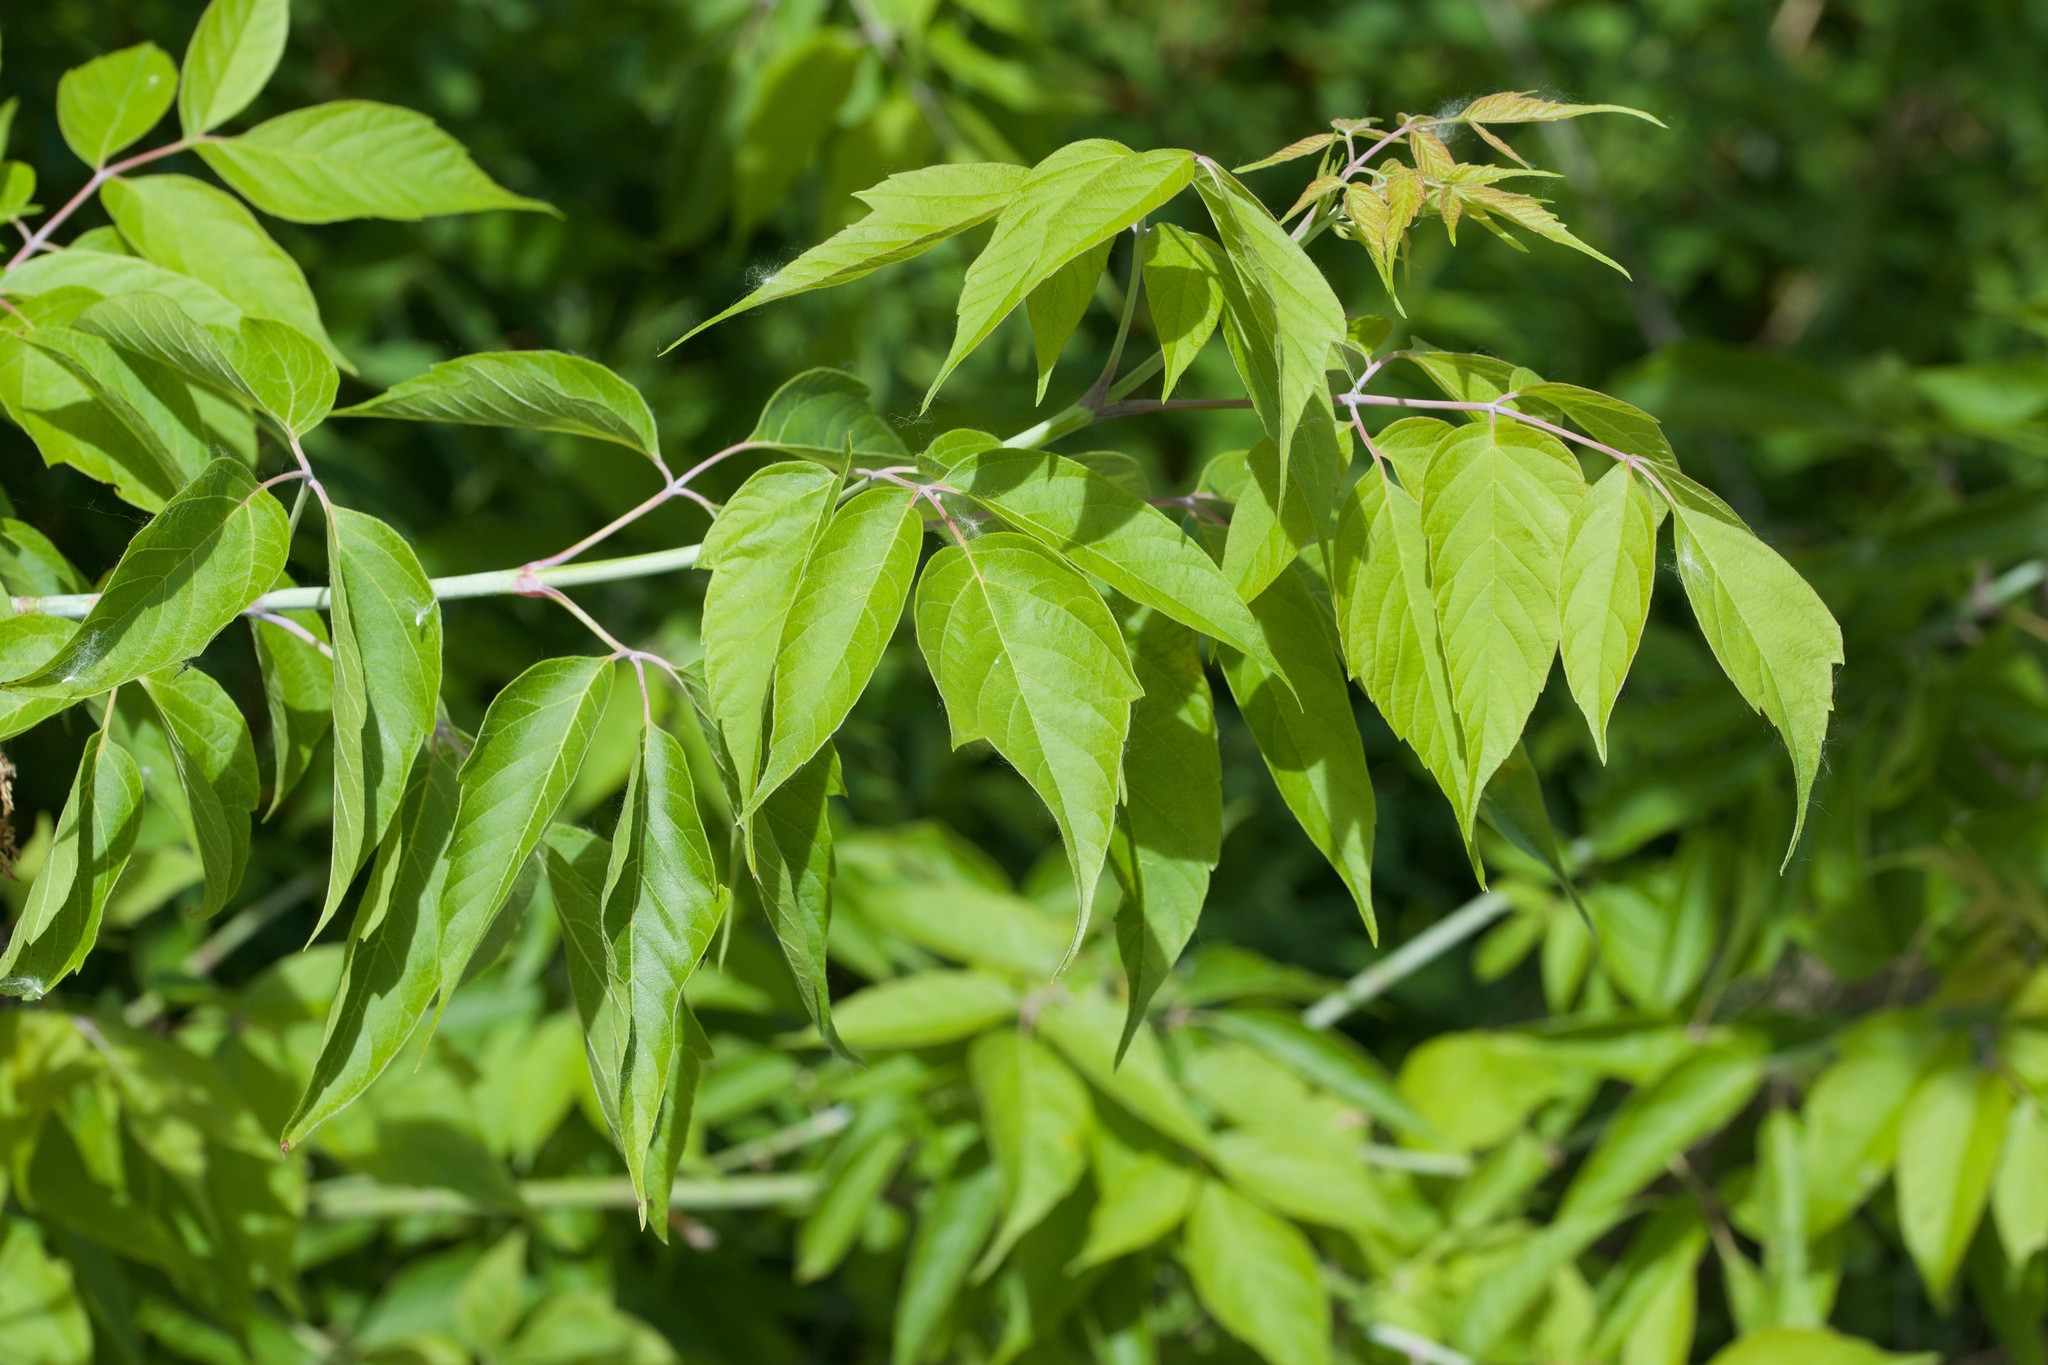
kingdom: Plantae
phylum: Tracheophyta
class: Magnoliopsida
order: Sapindales
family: Sapindaceae
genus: Acer
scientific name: Acer negundo
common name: Ashleaf maple
